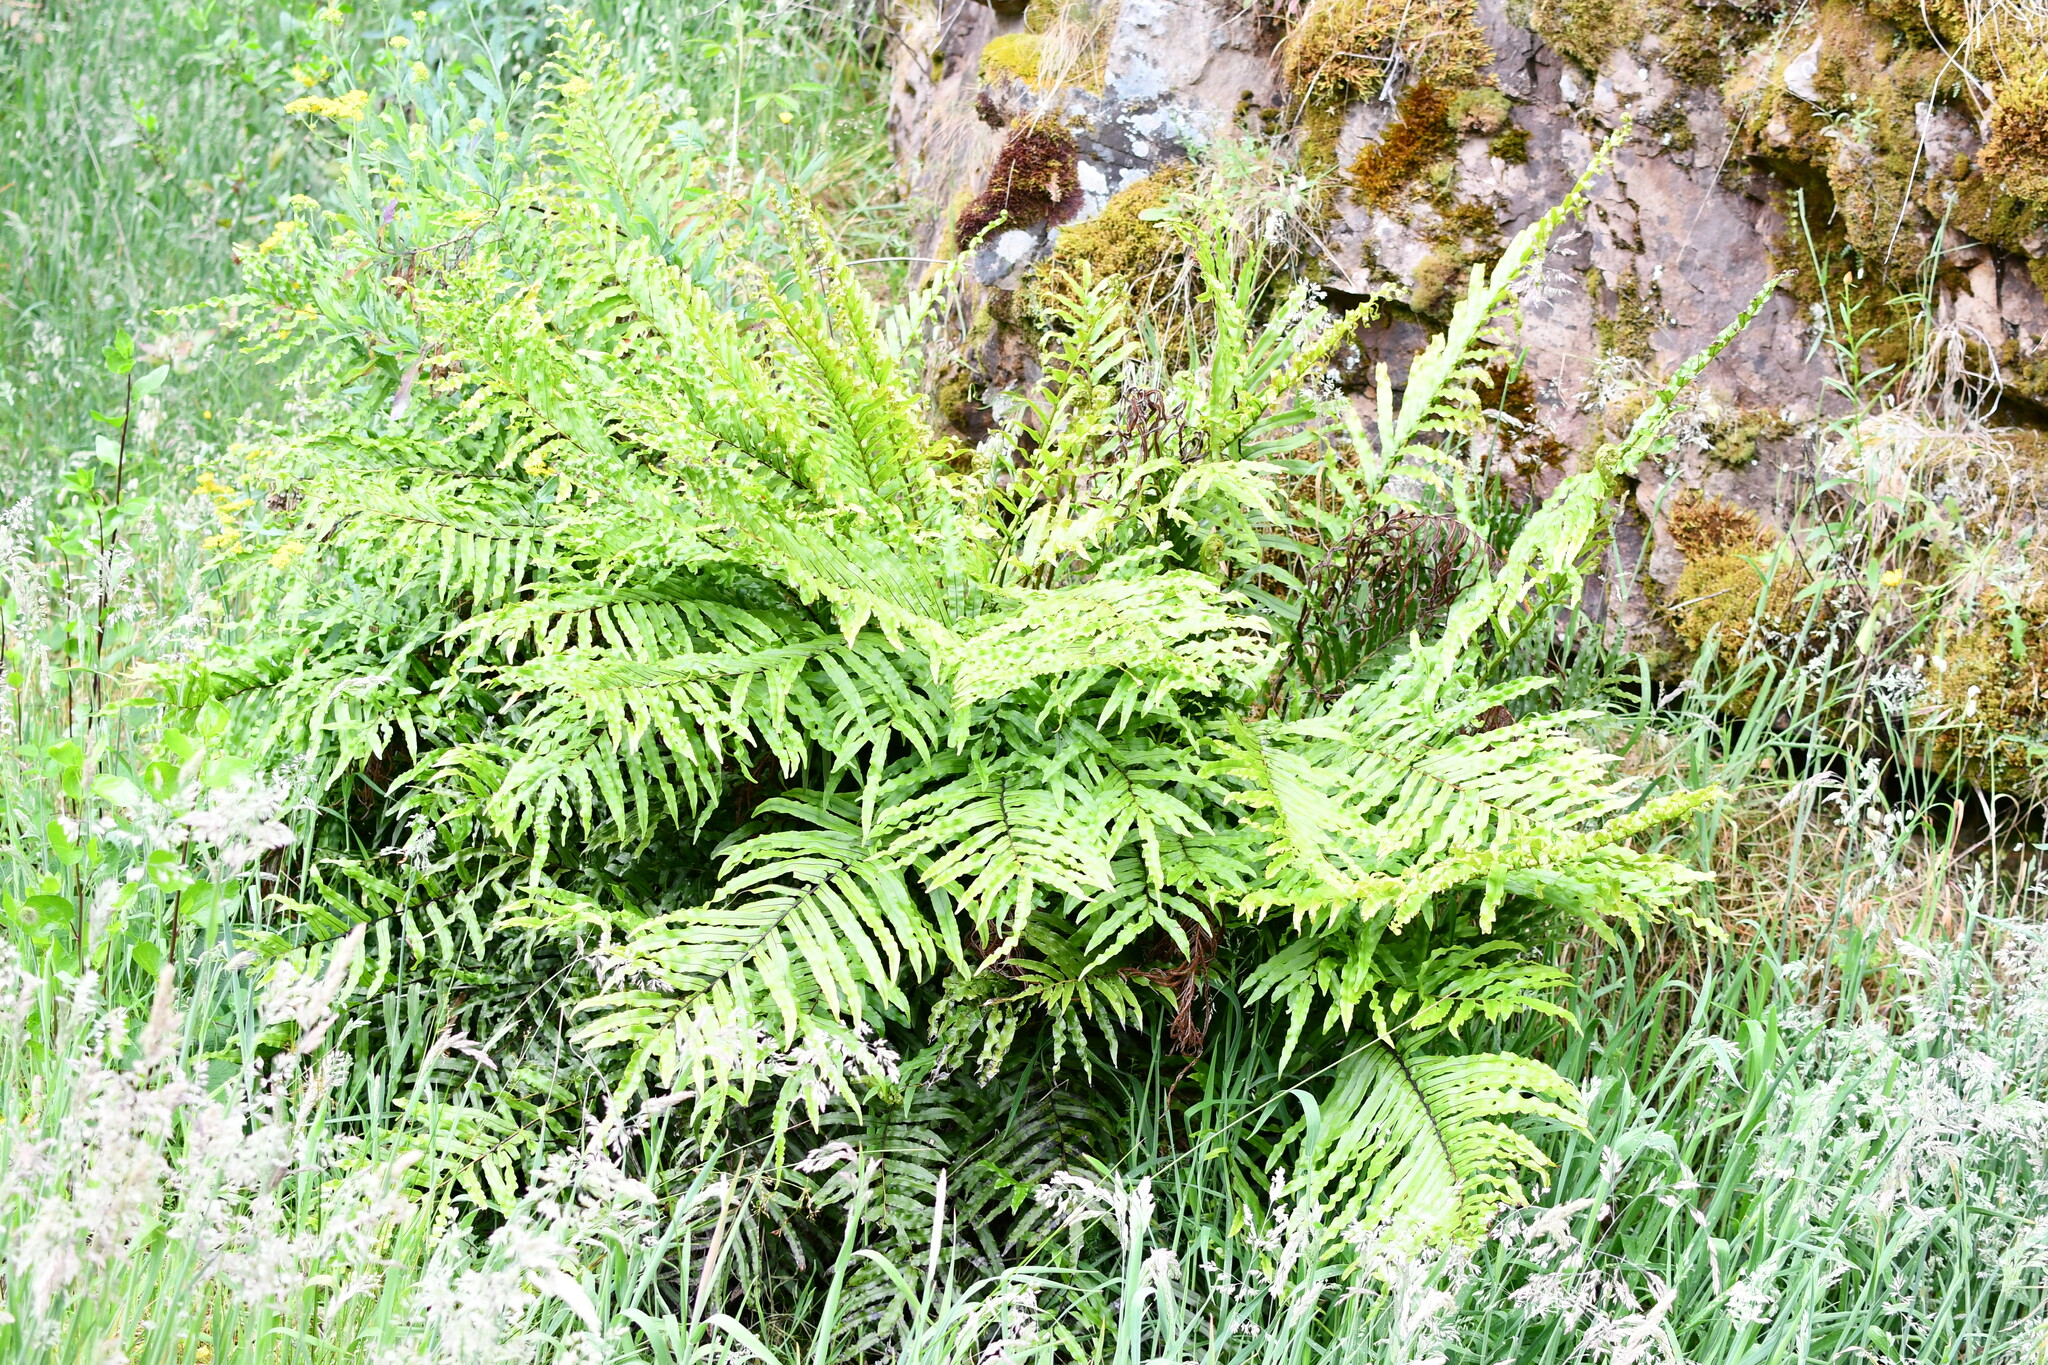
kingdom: Plantae
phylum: Tracheophyta
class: Polypodiopsida
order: Polypodiales
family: Blechnaceae
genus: Parablechnum
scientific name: Parablechnum minus
